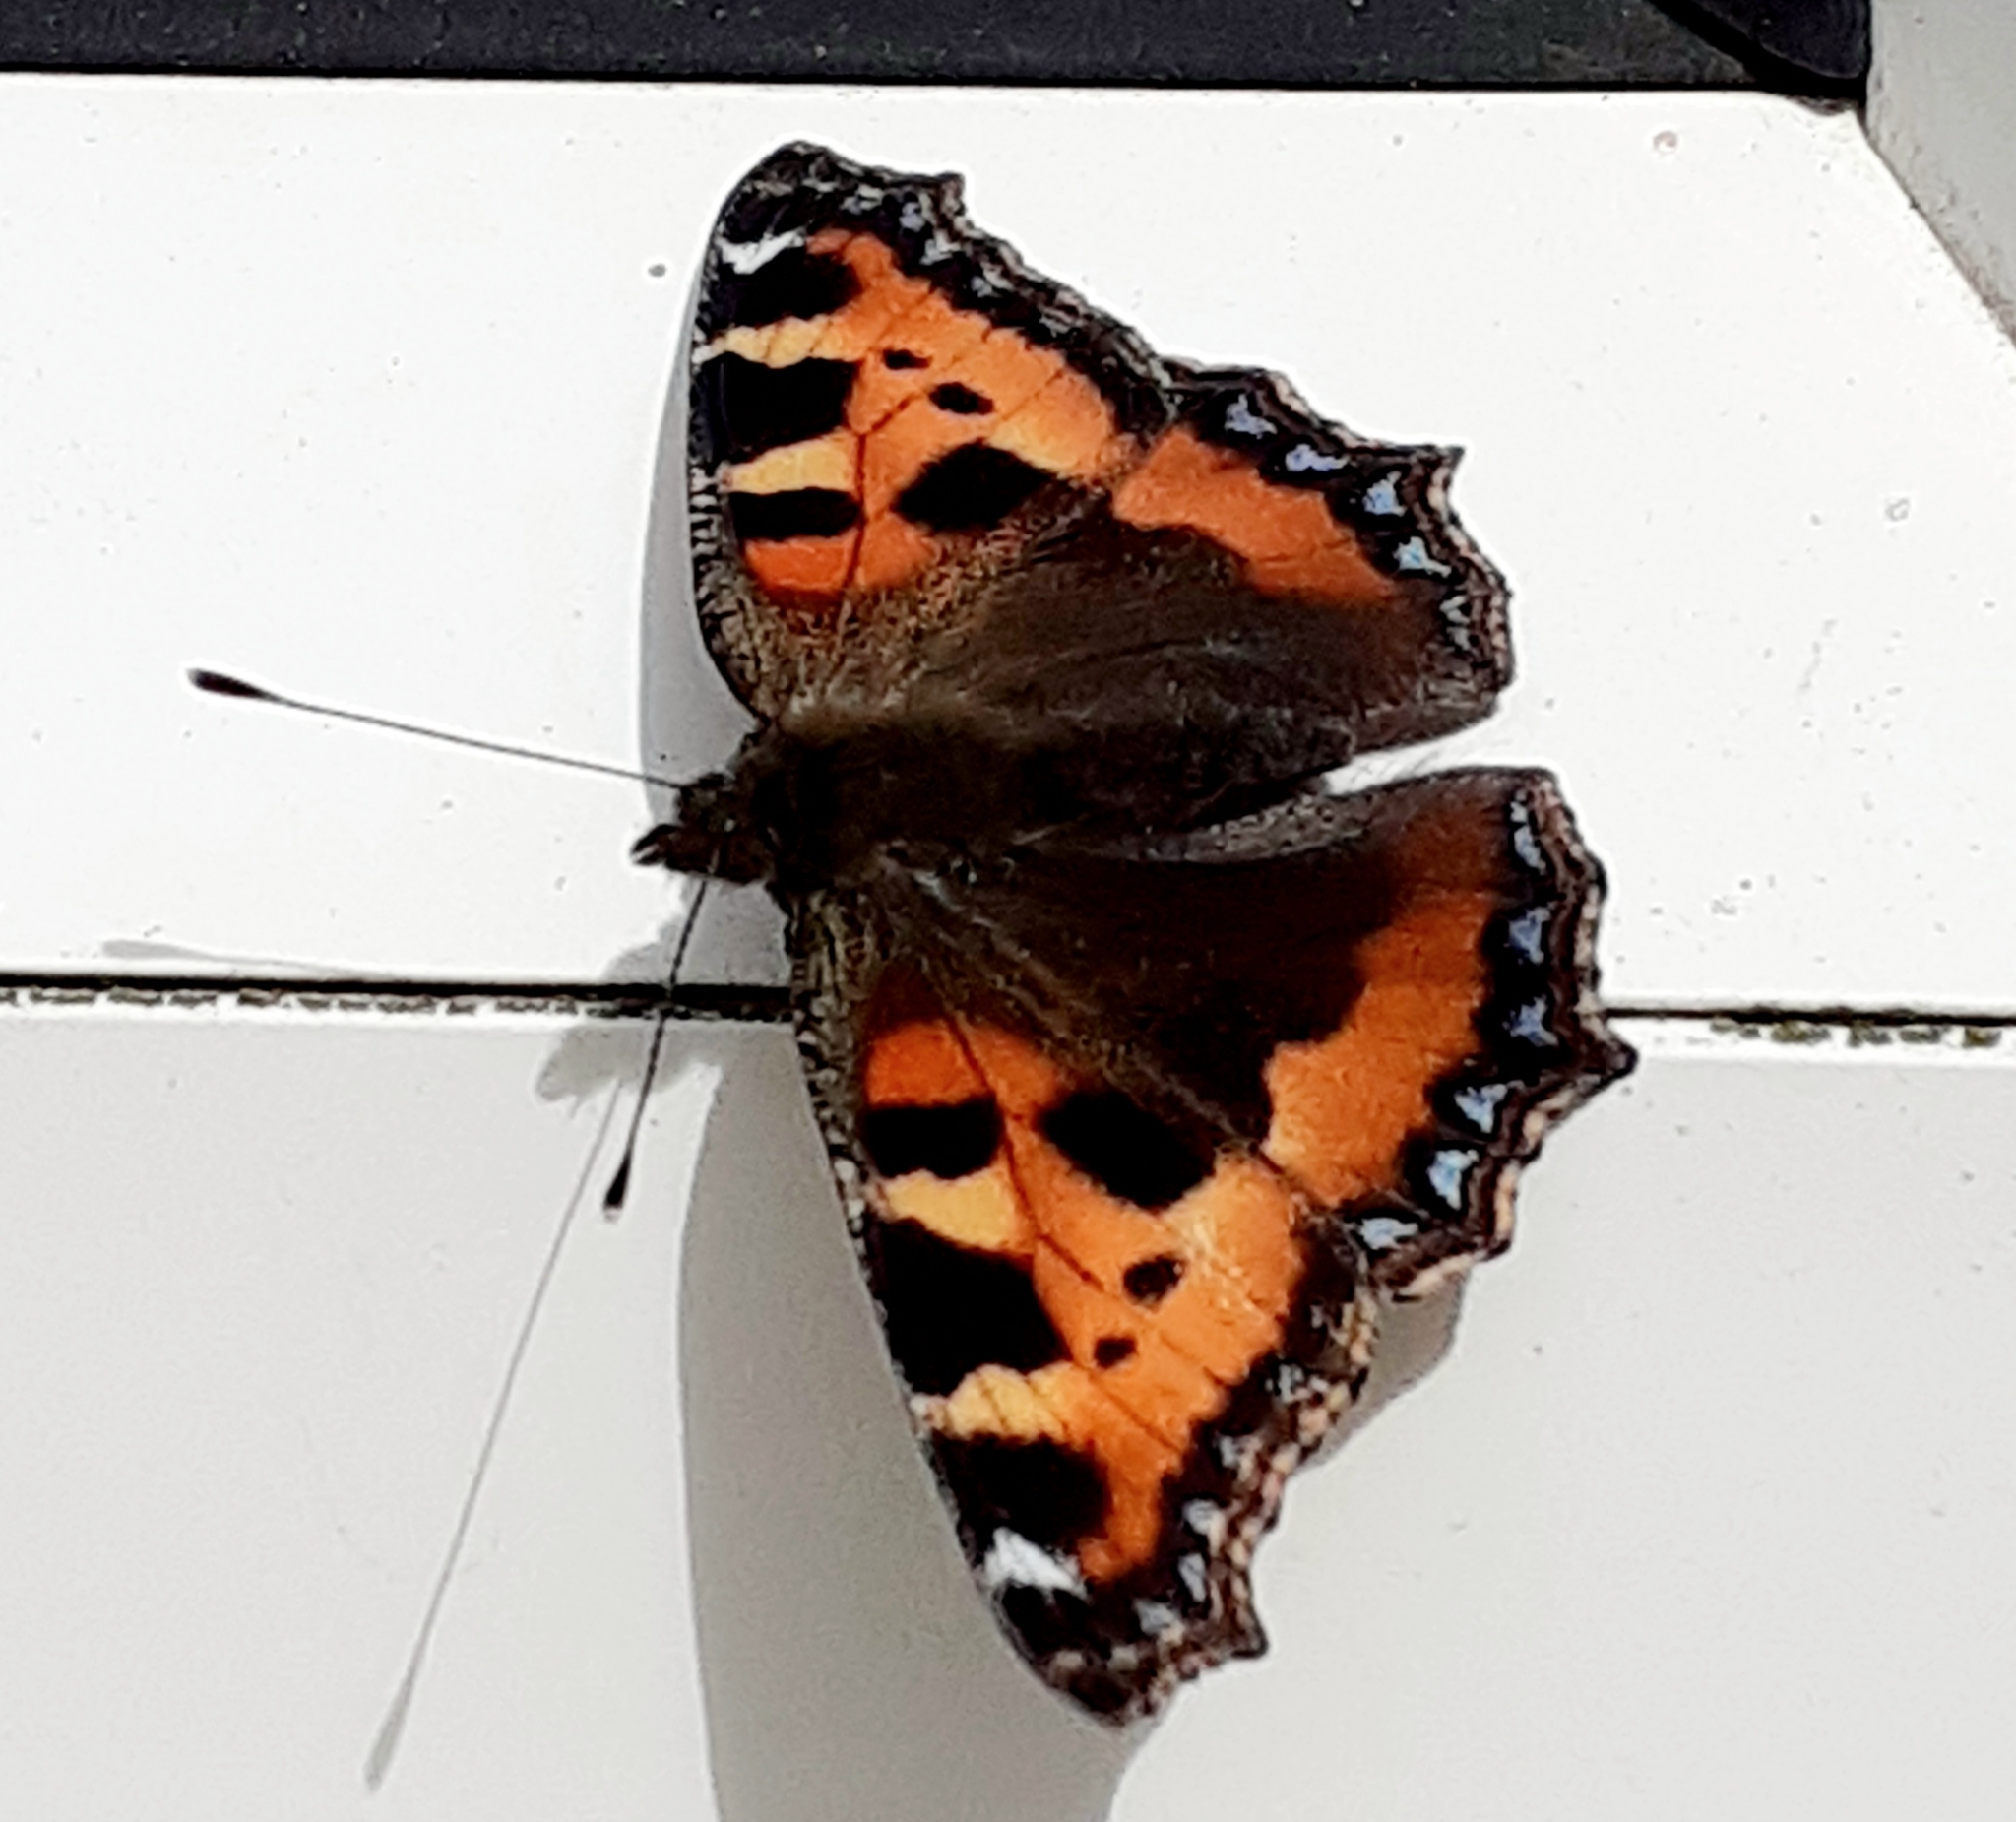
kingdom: Animalia
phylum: Arthropoda
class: Insecta
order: Lepidoptera
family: Nymphalidae
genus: Aglais
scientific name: Aglais urticae
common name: Small tortoiseshell
